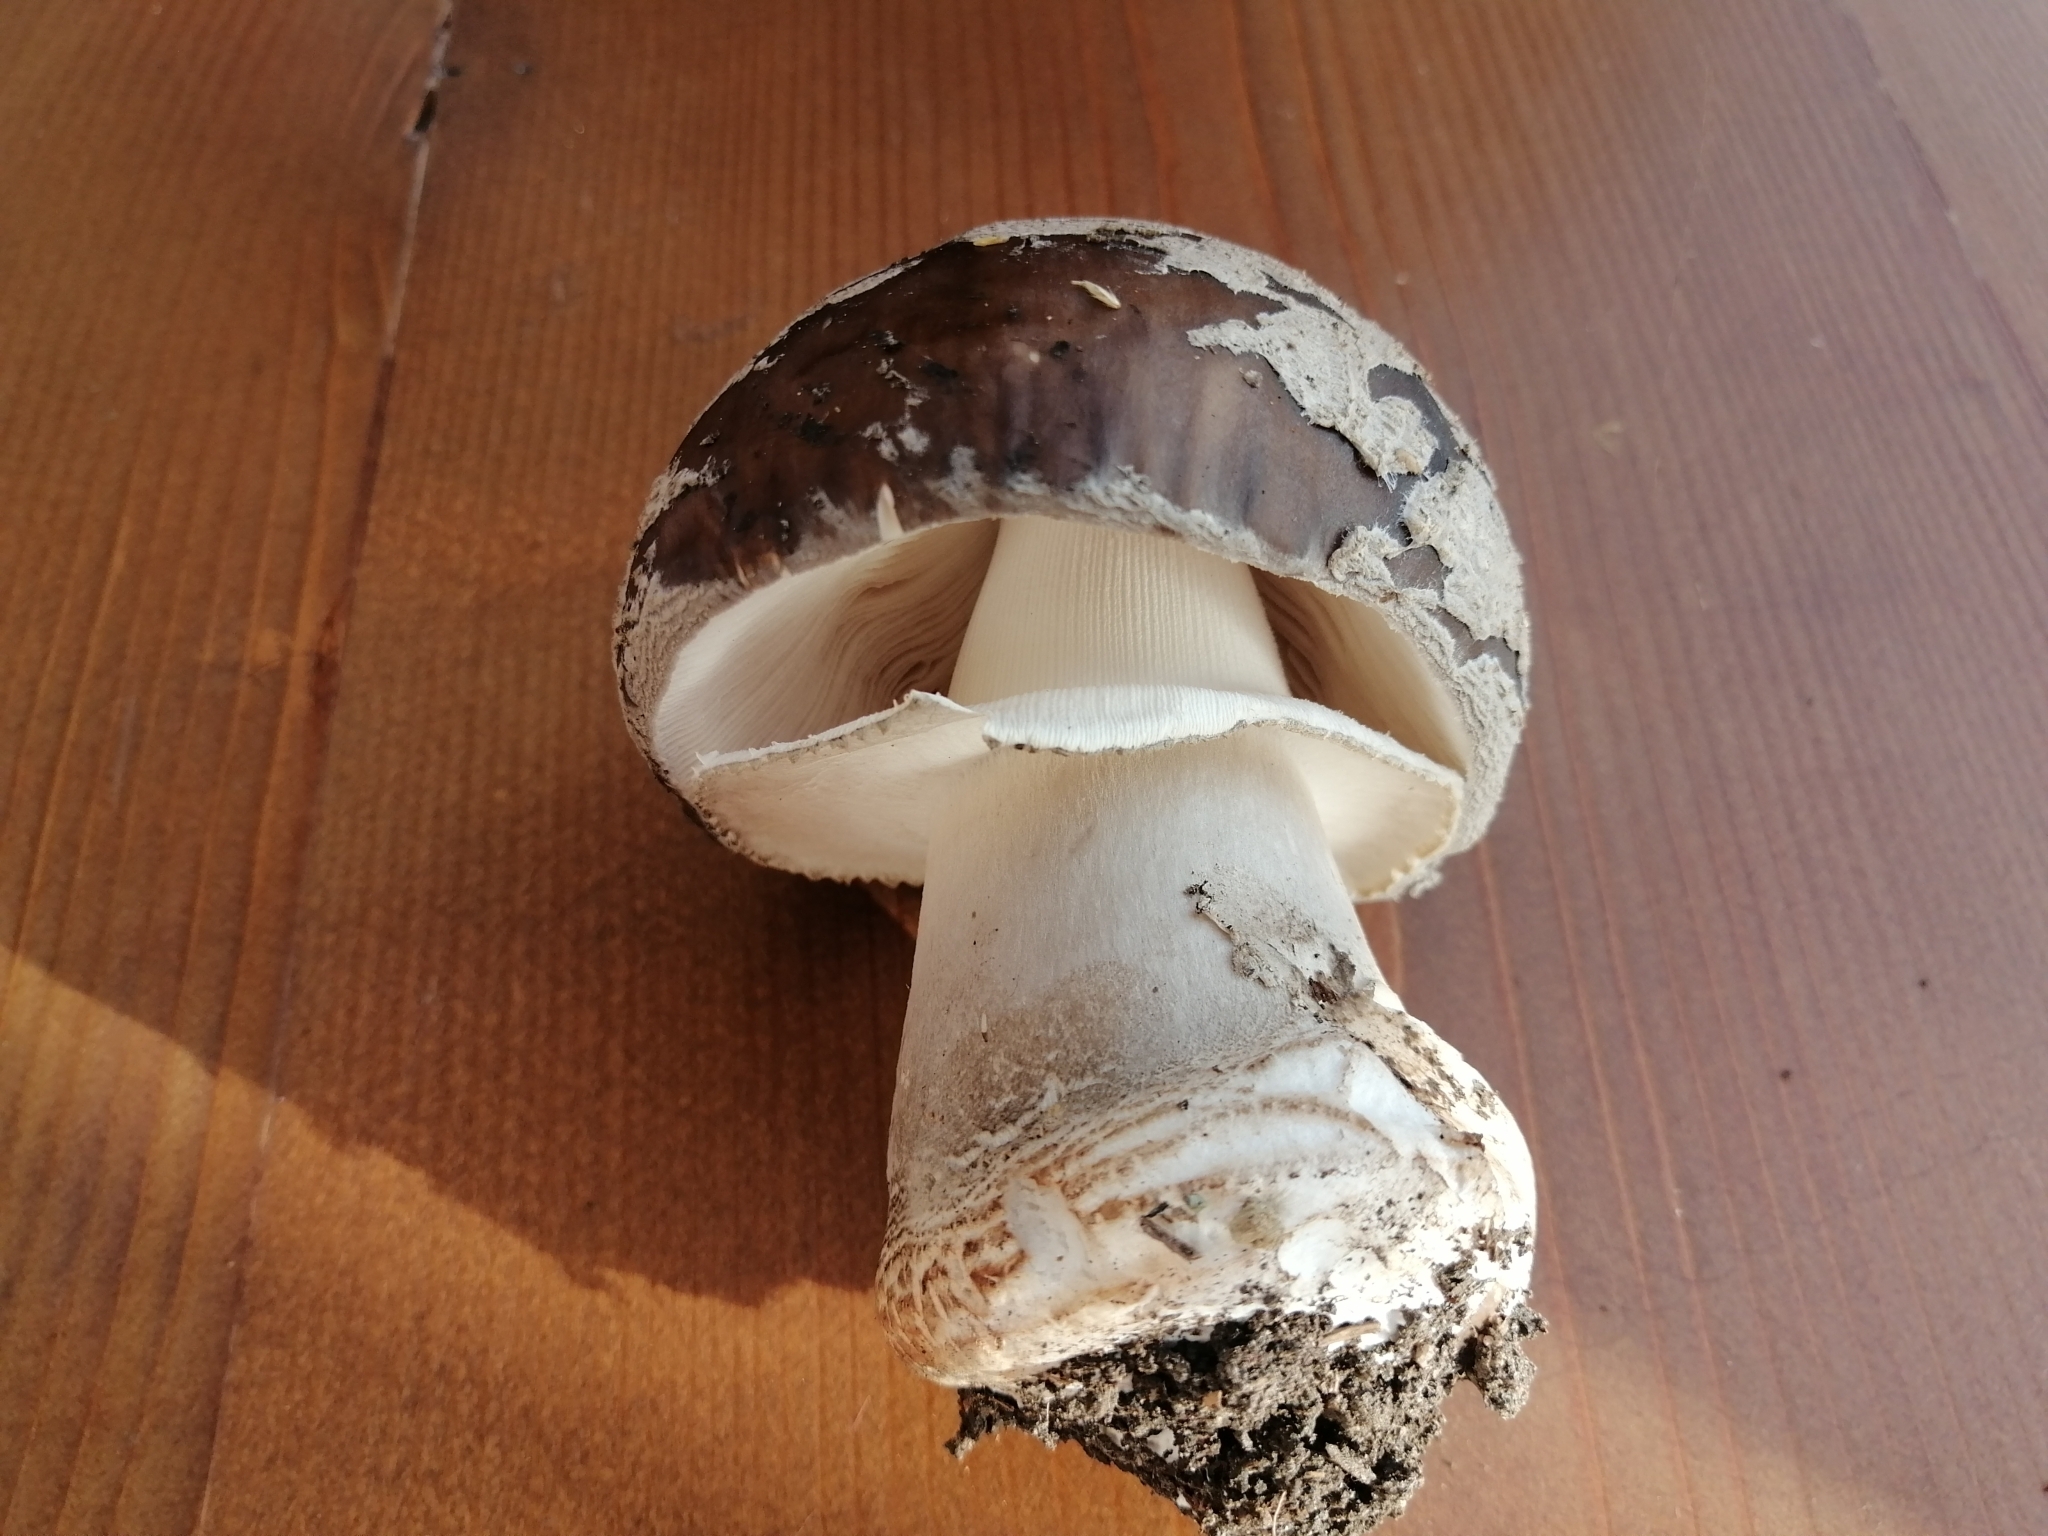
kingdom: Fungi
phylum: Basidiomycota
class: Agaricomycetes
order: Agaricales
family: Amanitaceae
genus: Amanita
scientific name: Amanita excelsa
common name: European false blusher
